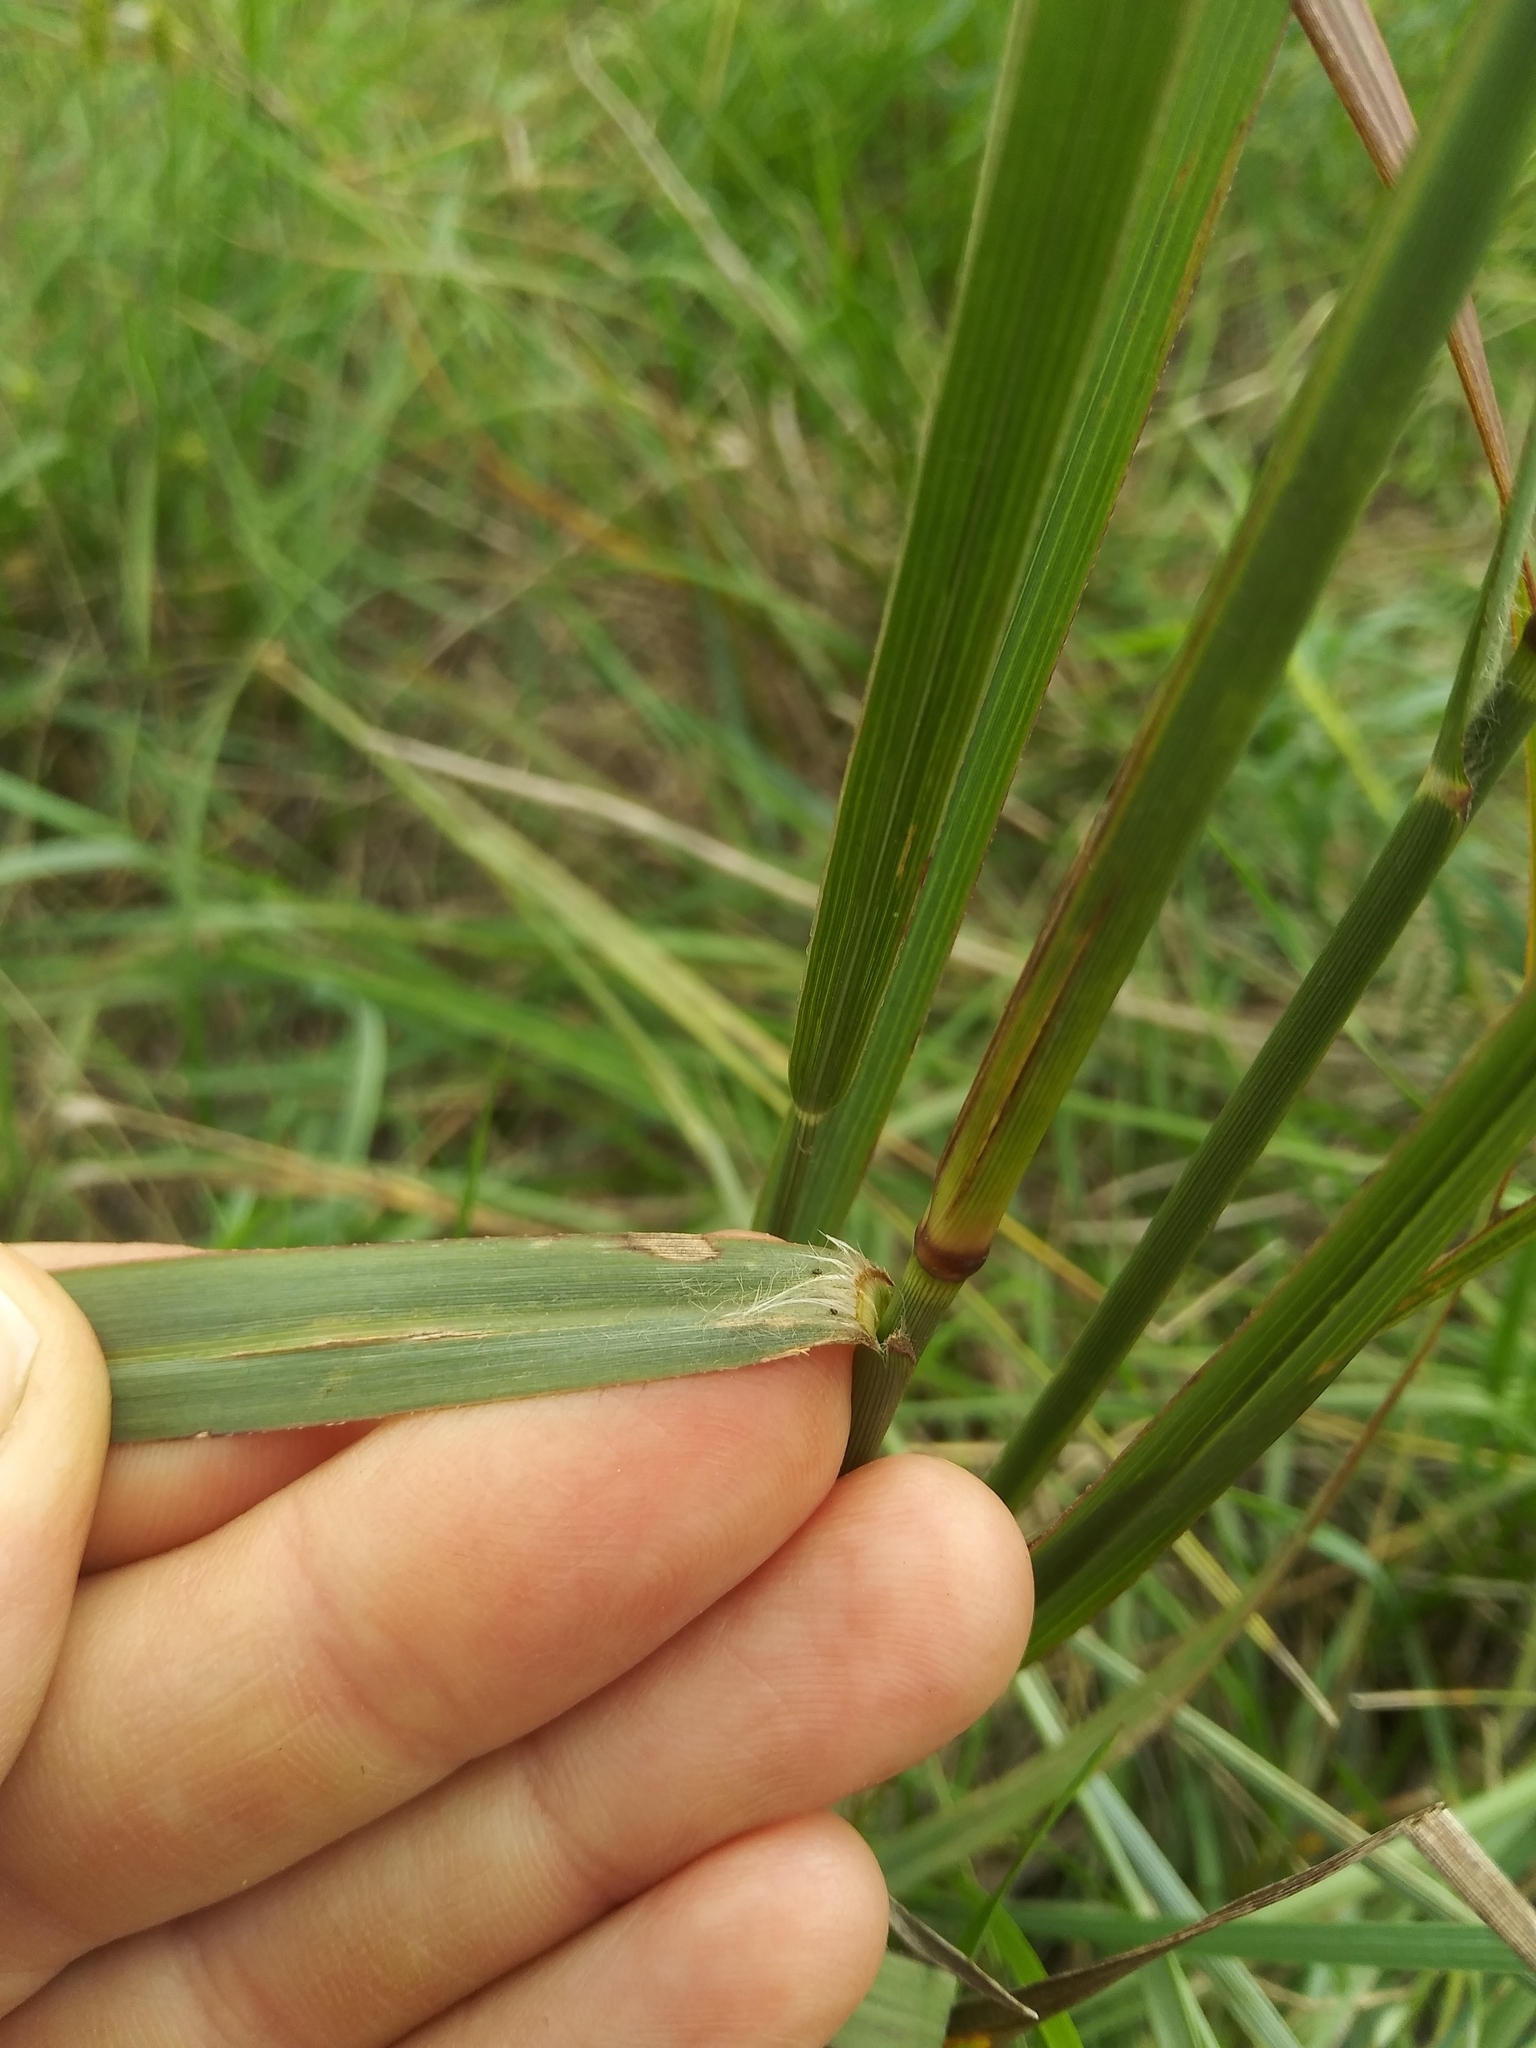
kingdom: Plantae
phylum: Tracheophyta
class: Liliopsida
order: Poales
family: Poaceae
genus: Panicum
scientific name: Panicum virgatum
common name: Switchgrass
